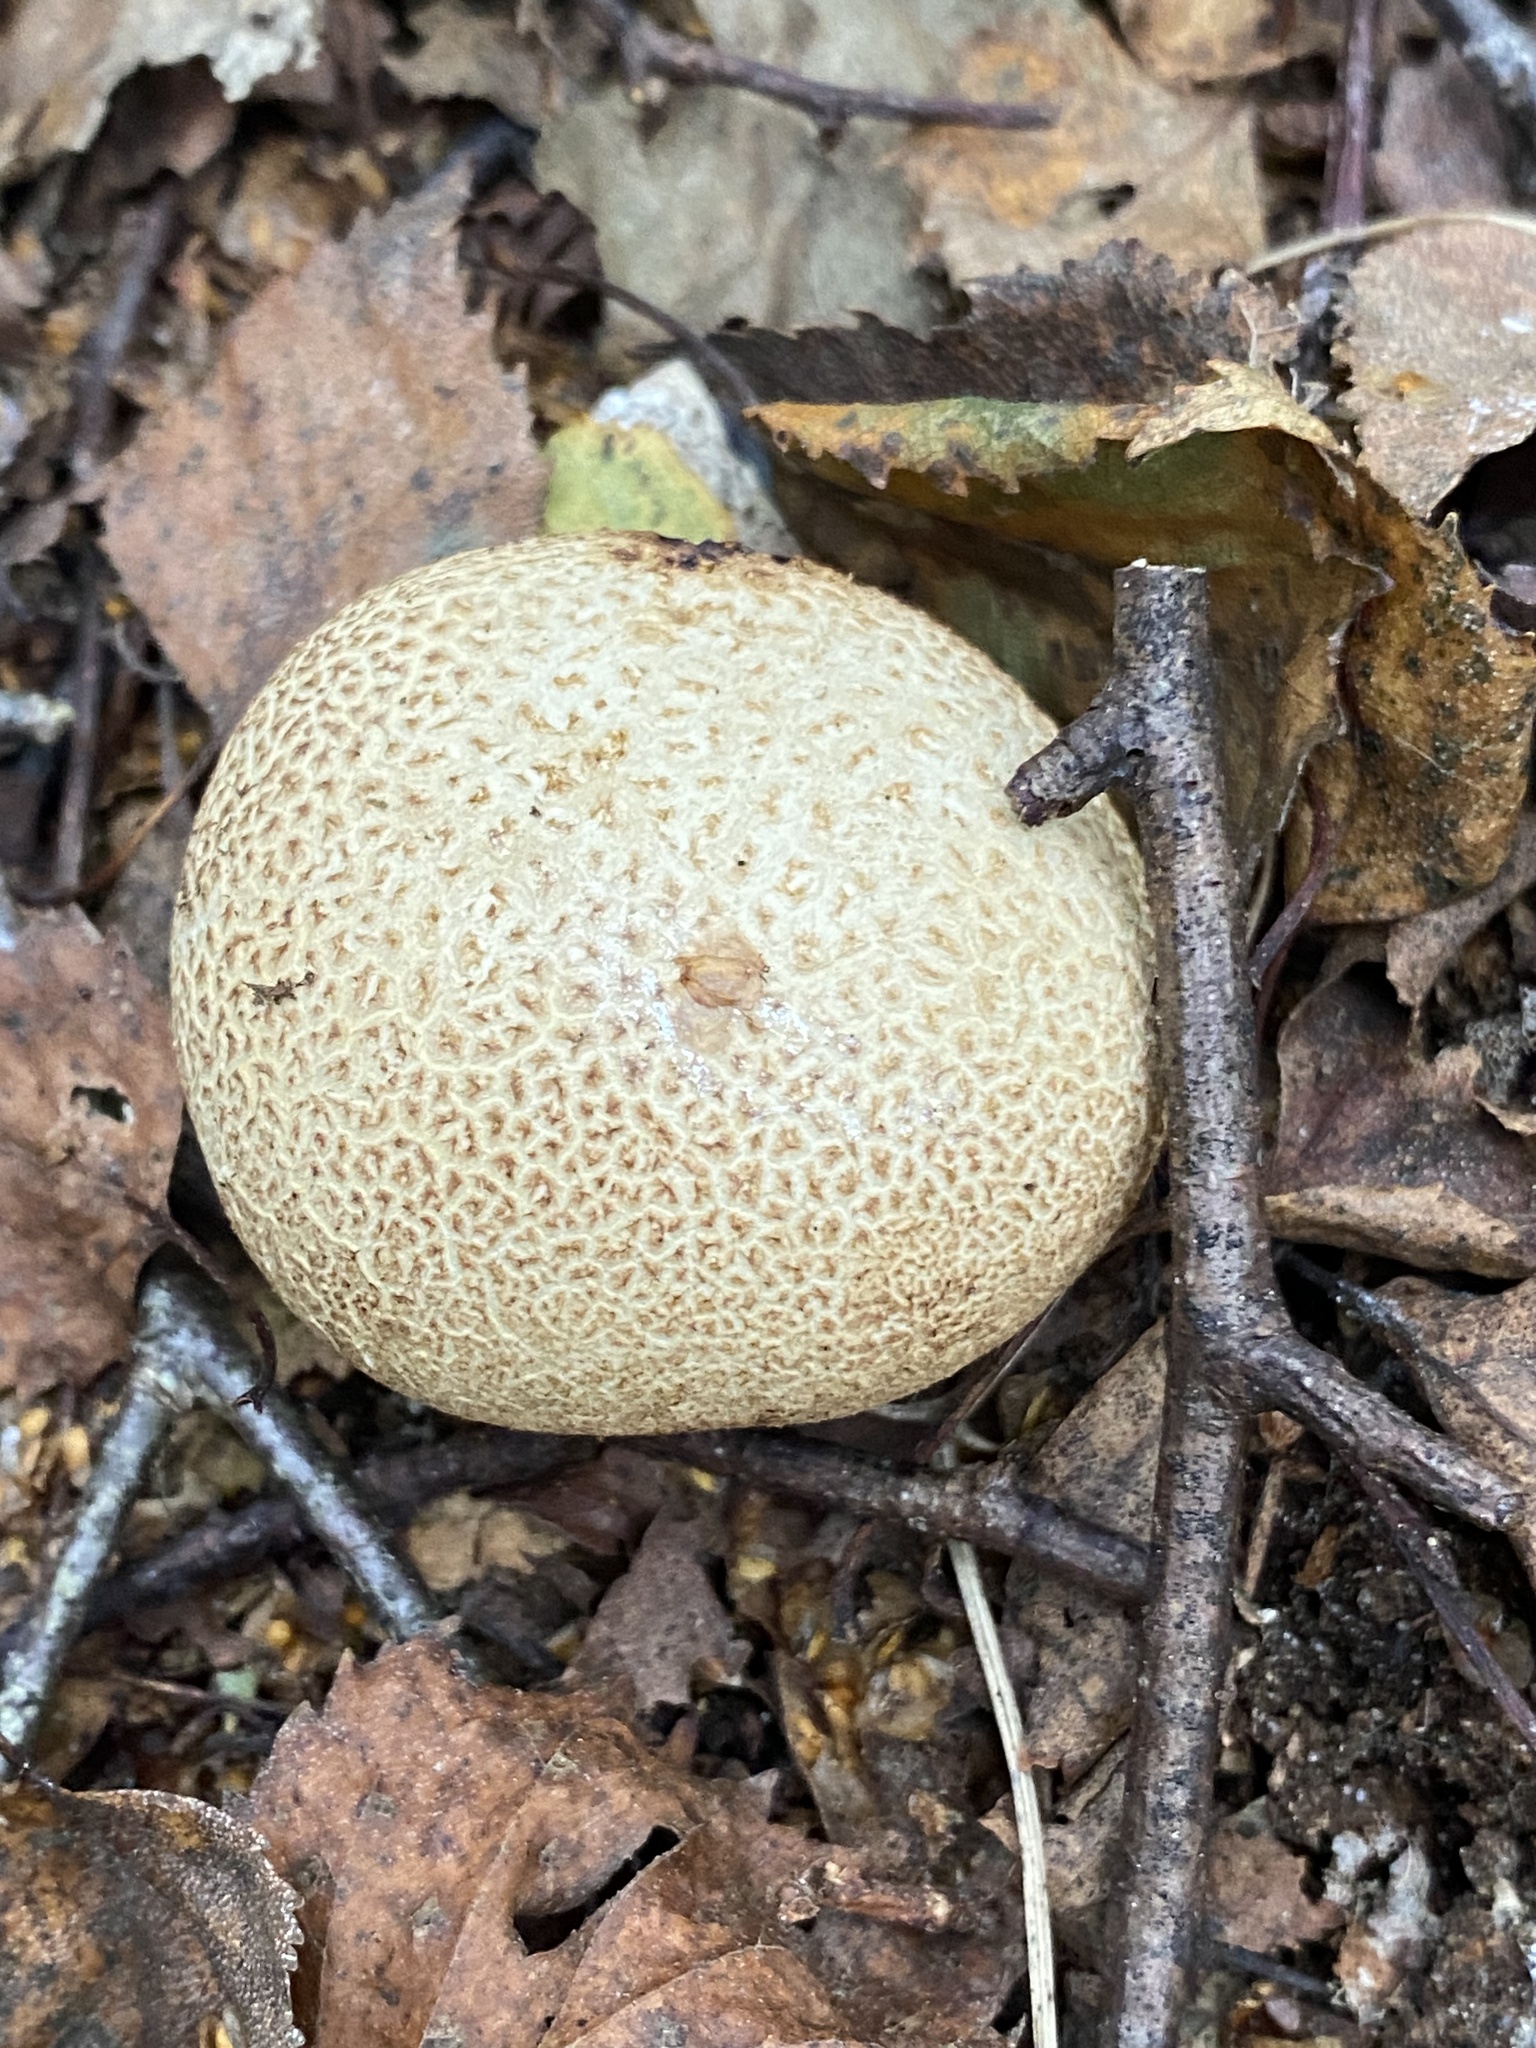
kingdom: Fungi
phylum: Basidiomycota
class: Agaricomycetes
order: Boletales
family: Sclerodermataceae
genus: Scleroderma
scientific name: Scleroderma citrinum
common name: Common earthball
